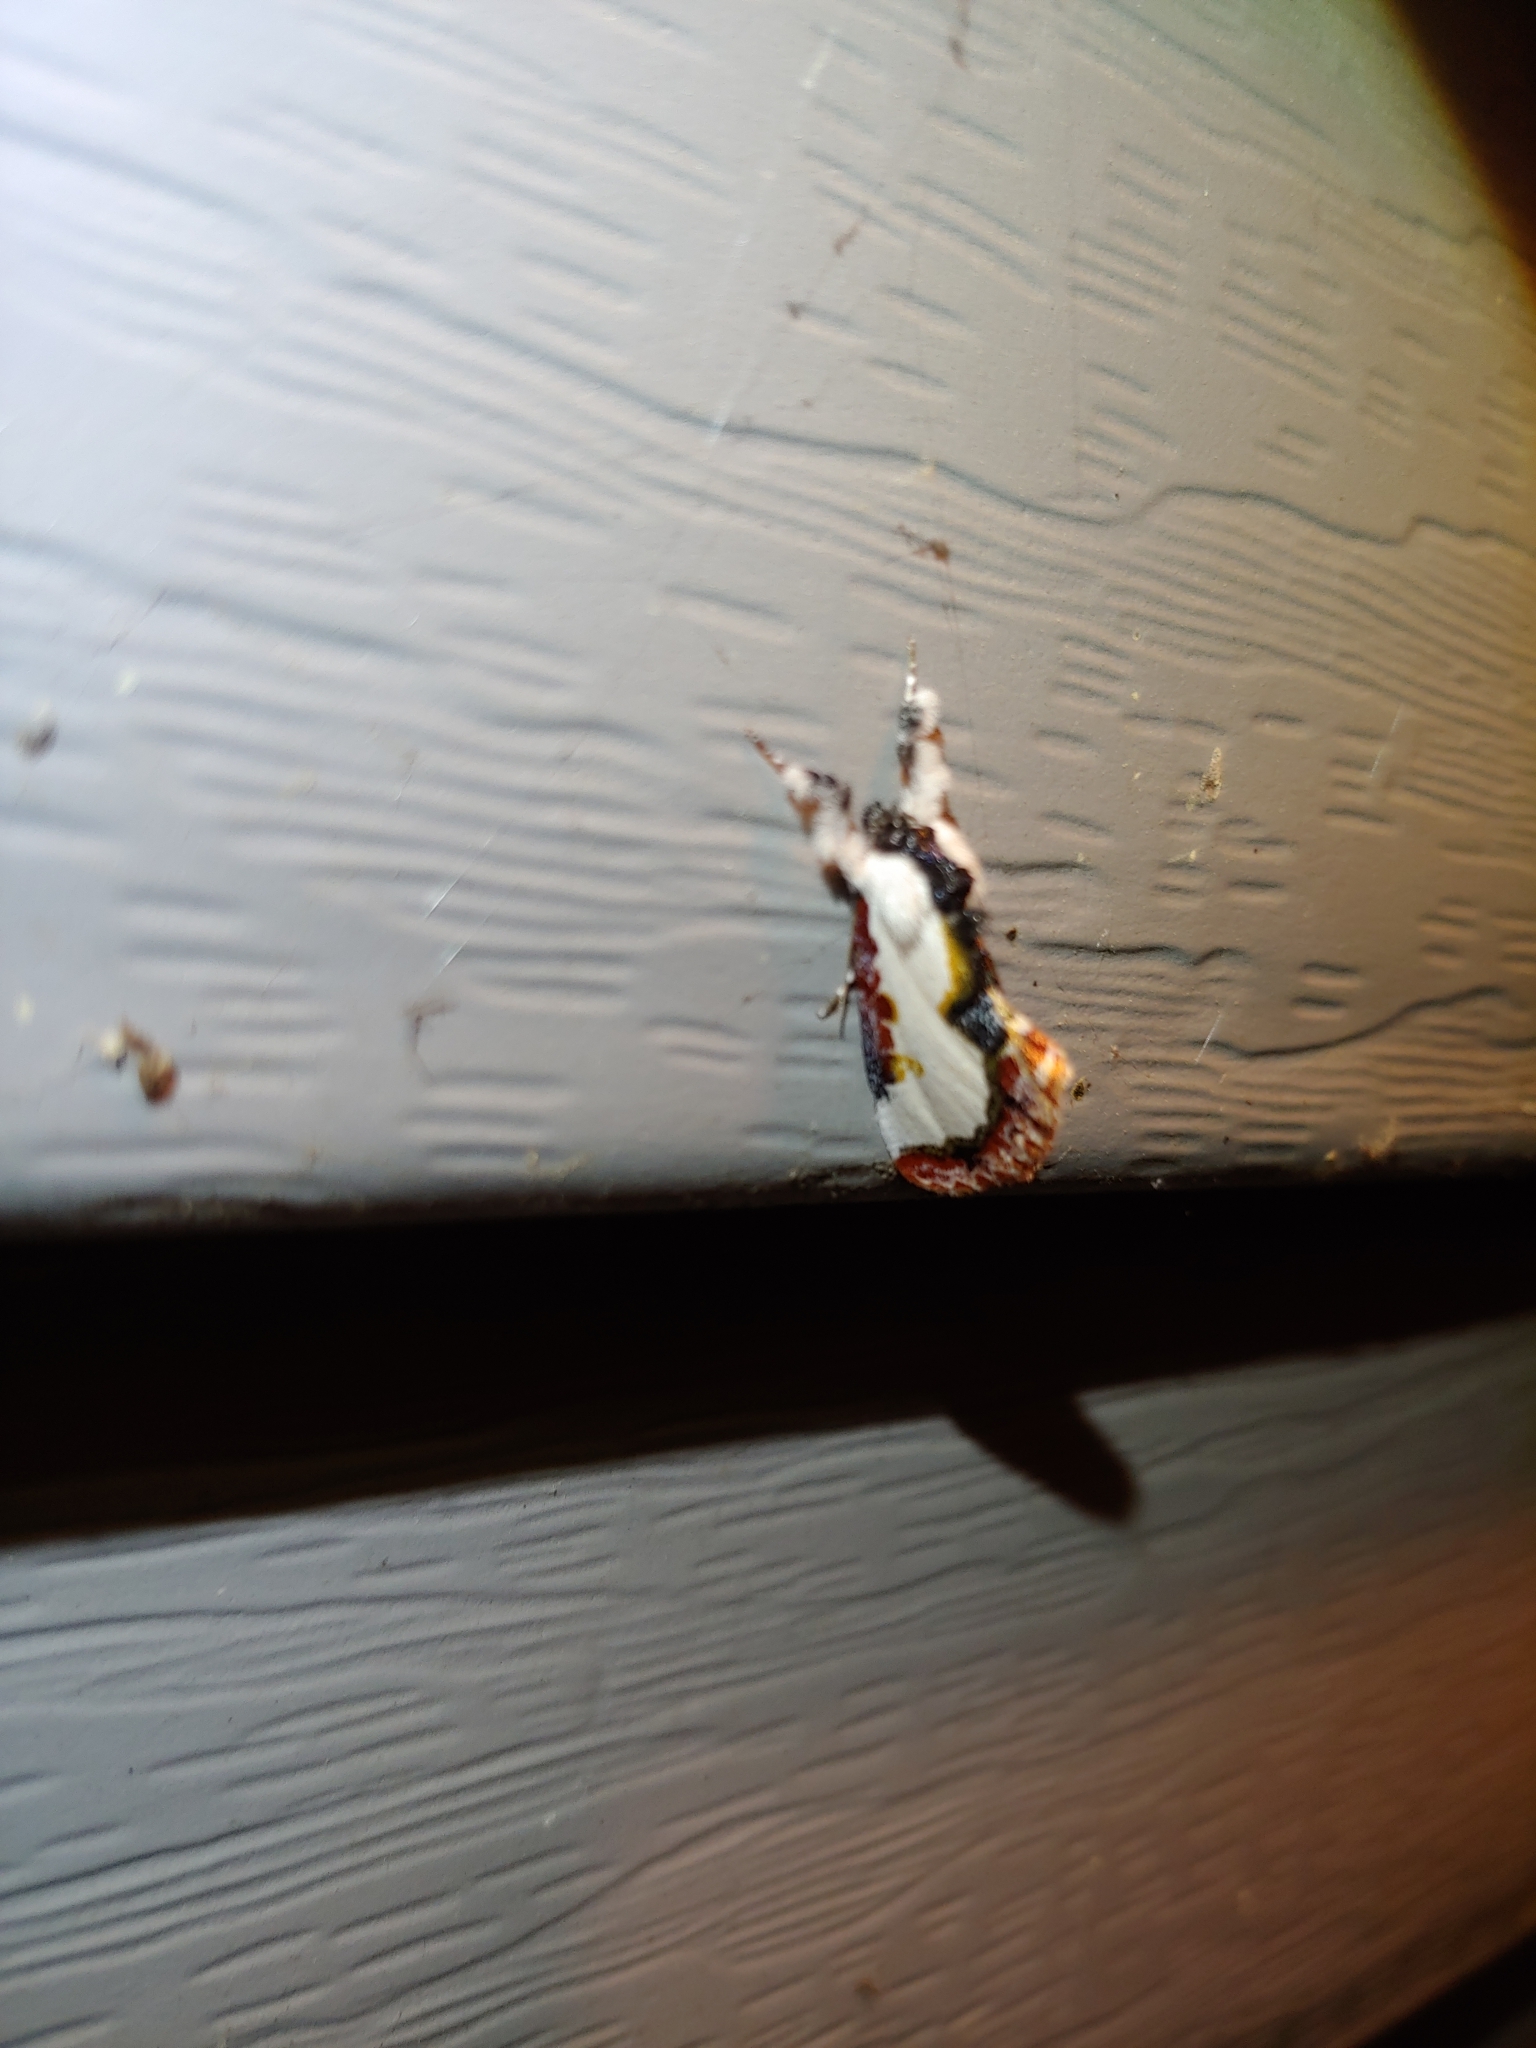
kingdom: Animalia
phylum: Arthropoda
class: Insecta
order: Lepidoptera
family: Noctuidae
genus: Eudryas
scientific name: Eudryas unio
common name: Pearly wood-nymph
